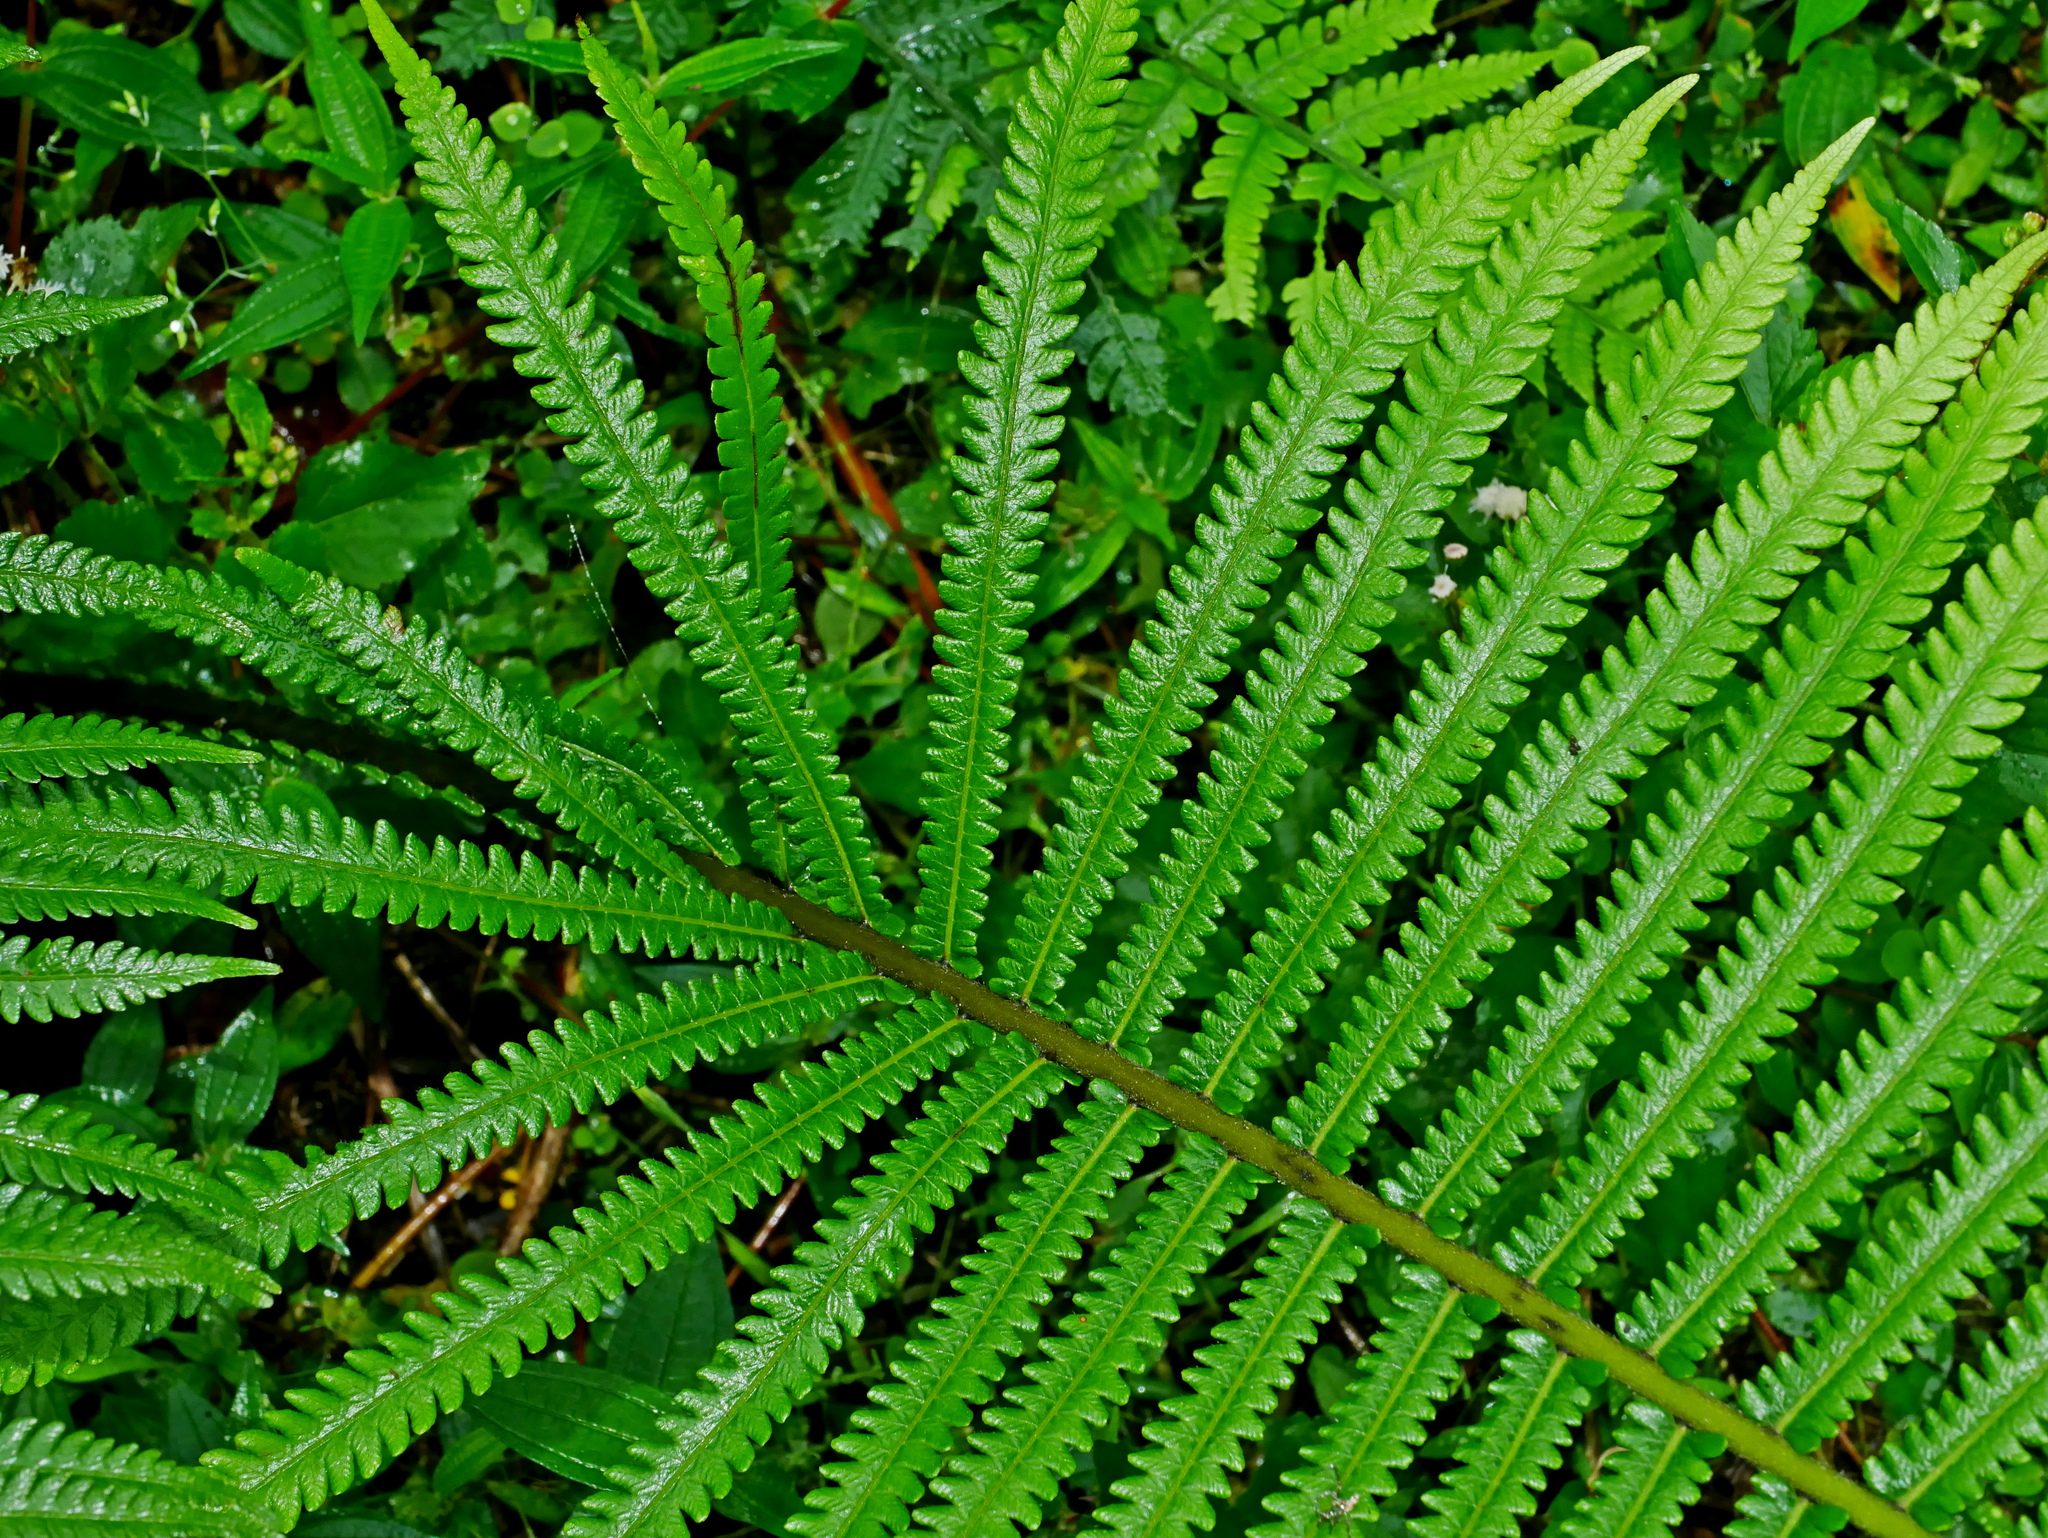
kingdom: Plantae
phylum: Tracheophyta
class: Polypodiopsida
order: Polypodiales
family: Thelypteridaceae
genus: Sphaerostephanos
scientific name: Sphaerostephanos taiwanensis
